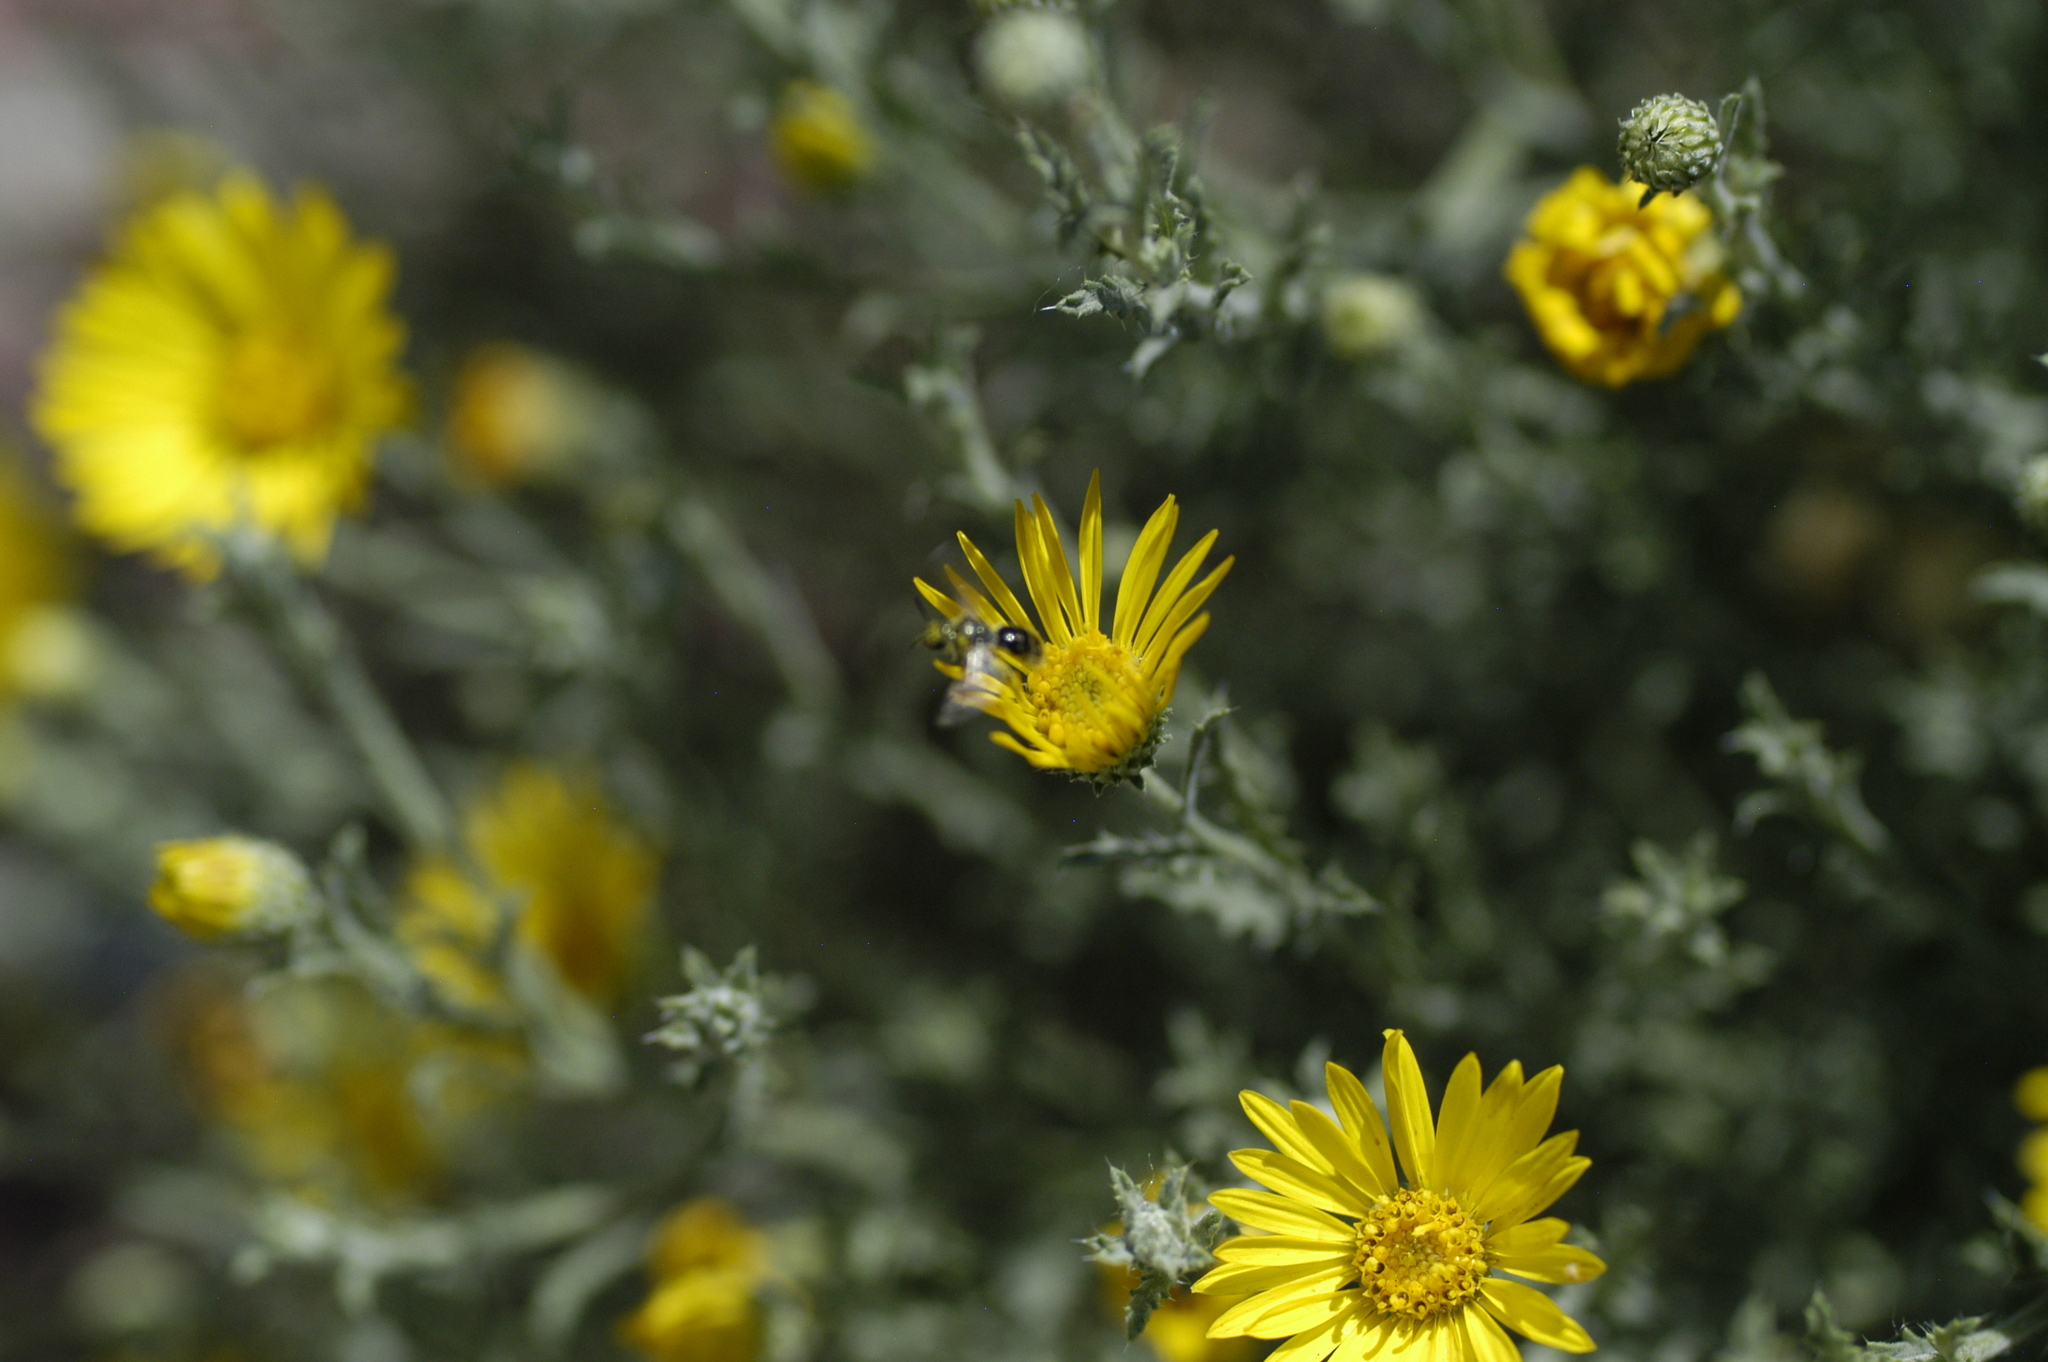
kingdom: Animalia
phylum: Arthropoda
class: Insecta
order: Hymenoptera
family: Halictidae
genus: Dialictus
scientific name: Dialictus
